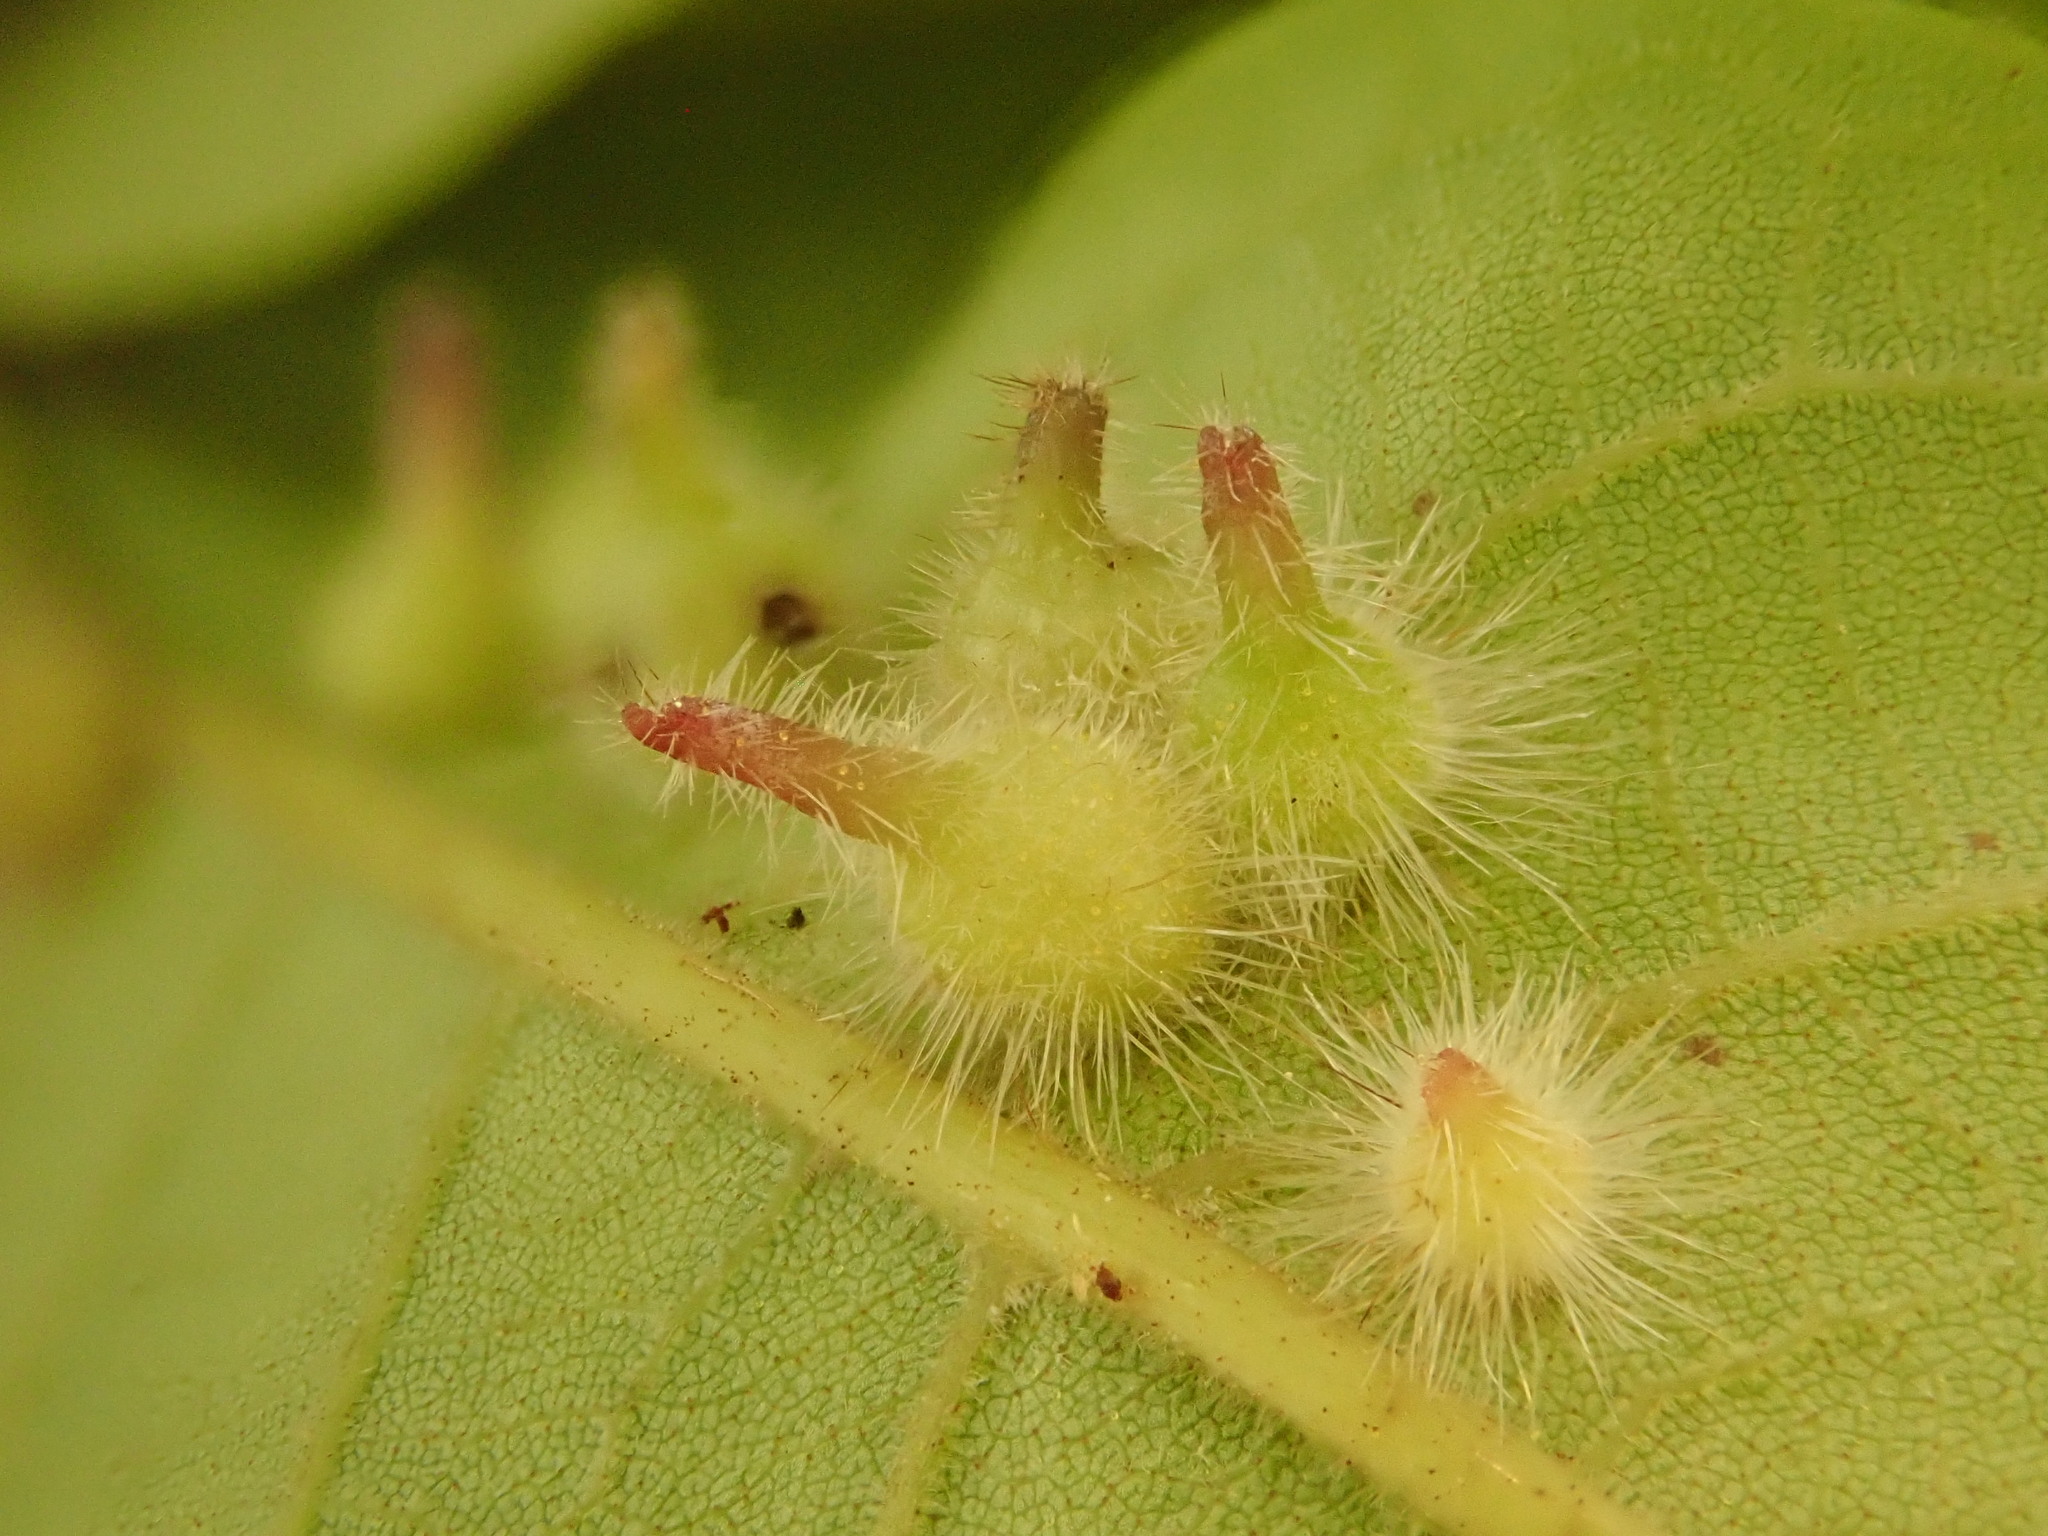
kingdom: Animalia
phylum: Arthropoda
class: Insecta
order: Diptera
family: Cecidomyiidae
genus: Caryomyia
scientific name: Caryomyia echinata
